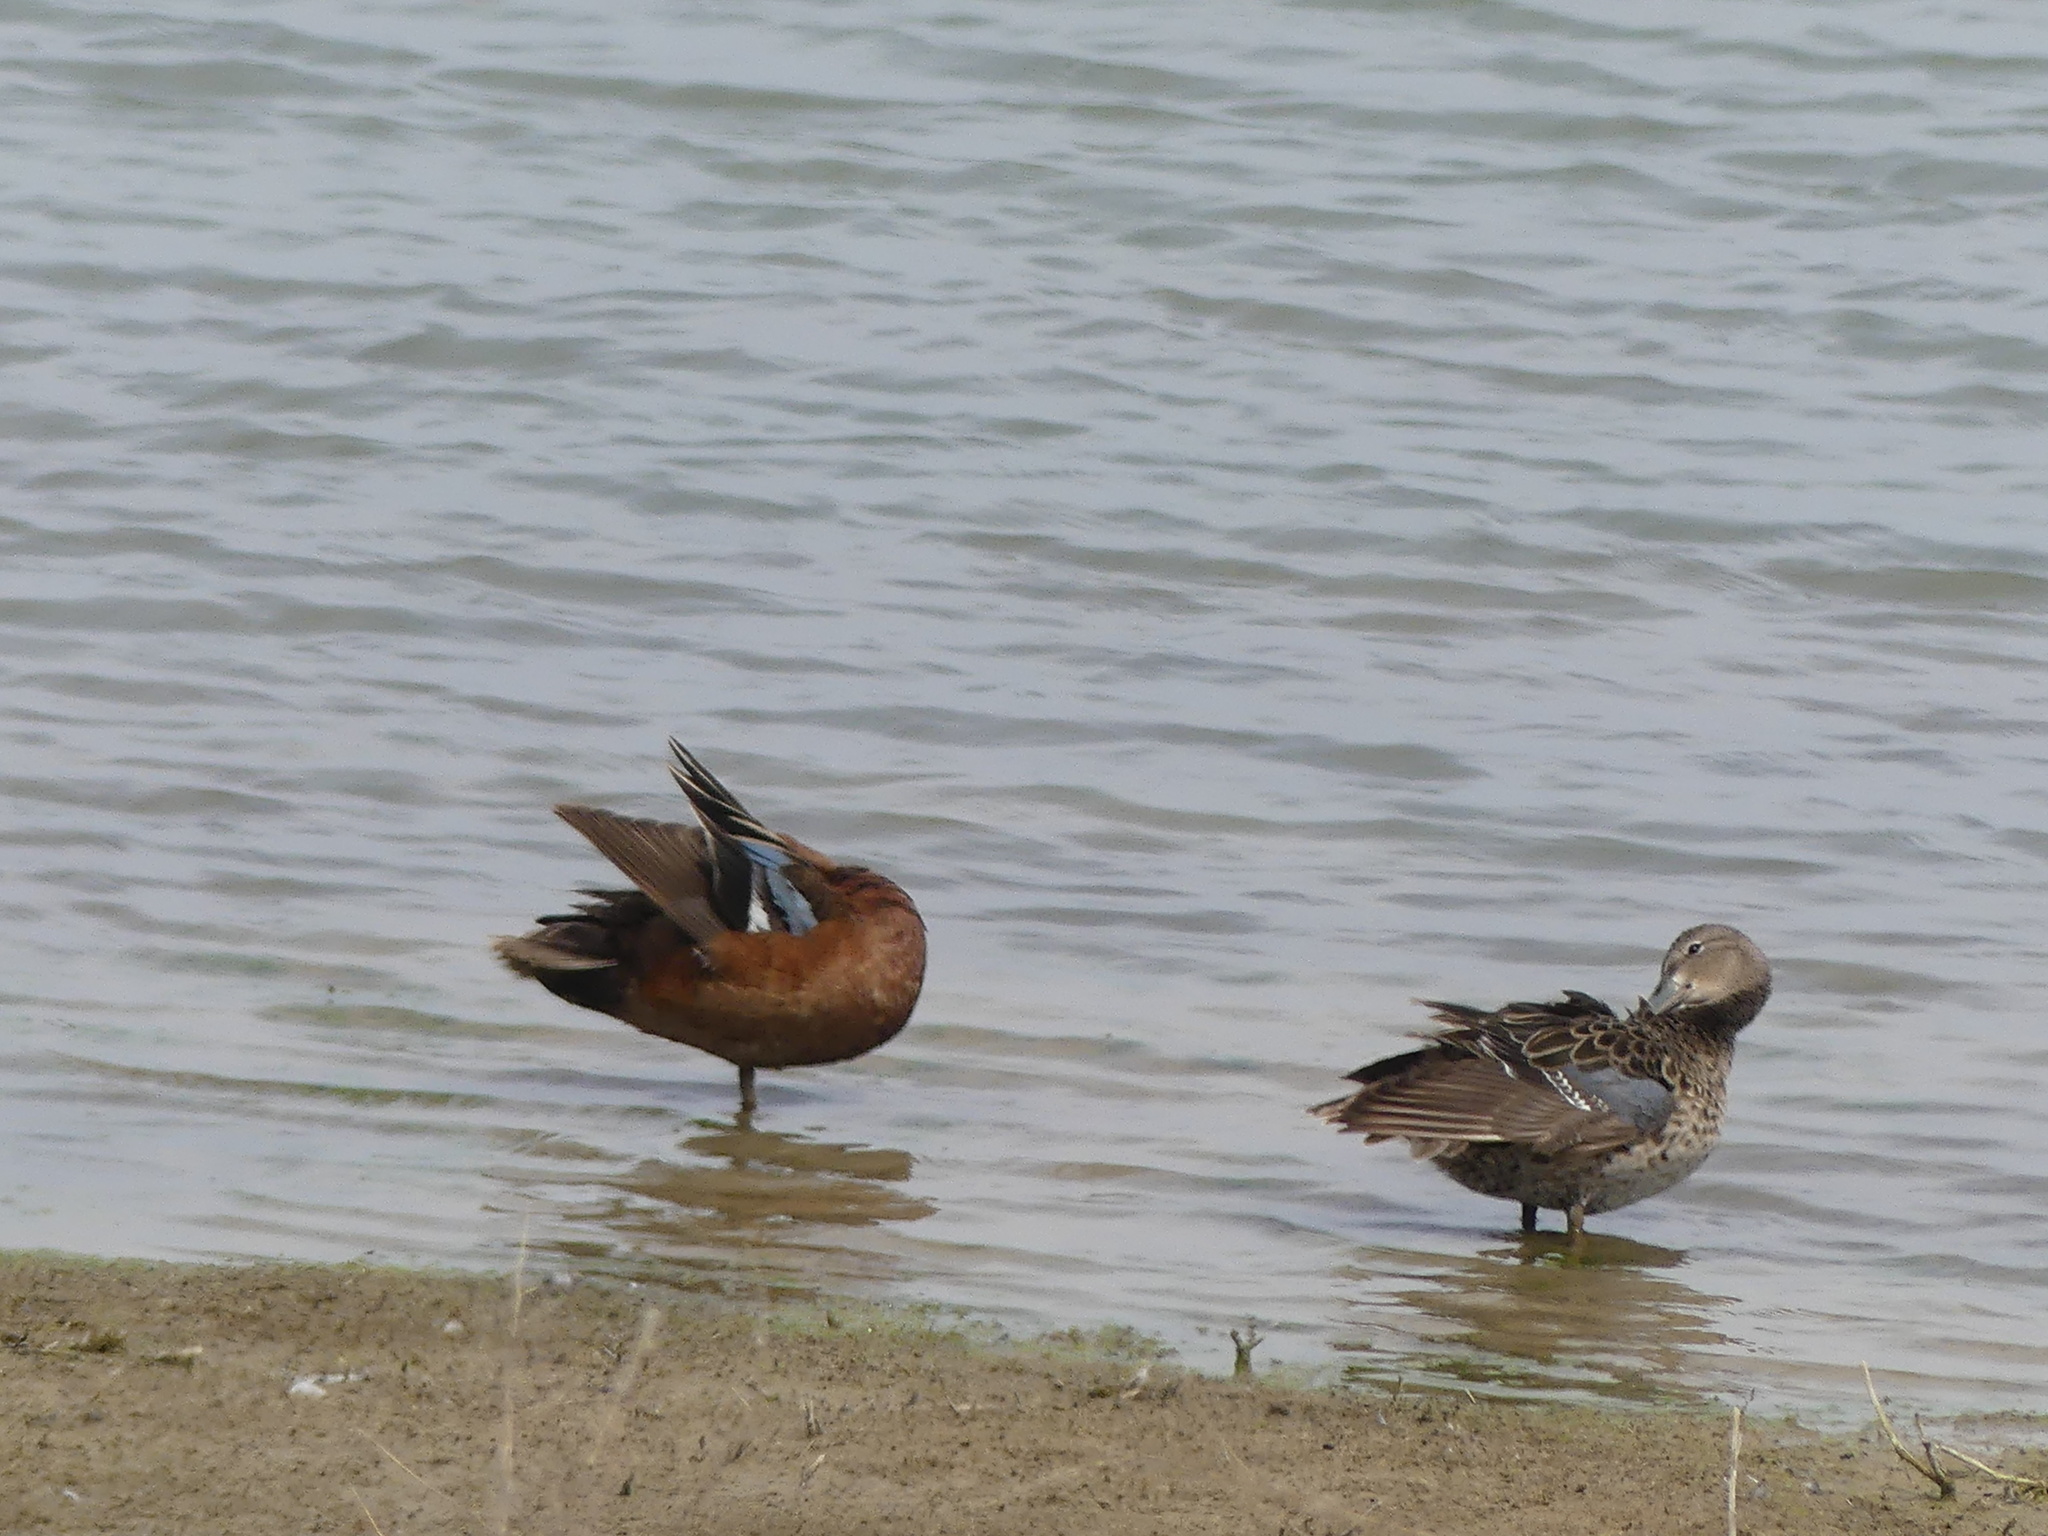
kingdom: Animalia
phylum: Chordata
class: Aves
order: Anseriformes
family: Anatidae
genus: Spatula
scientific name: Spatula cyanoptera
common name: Cinnamon teal
